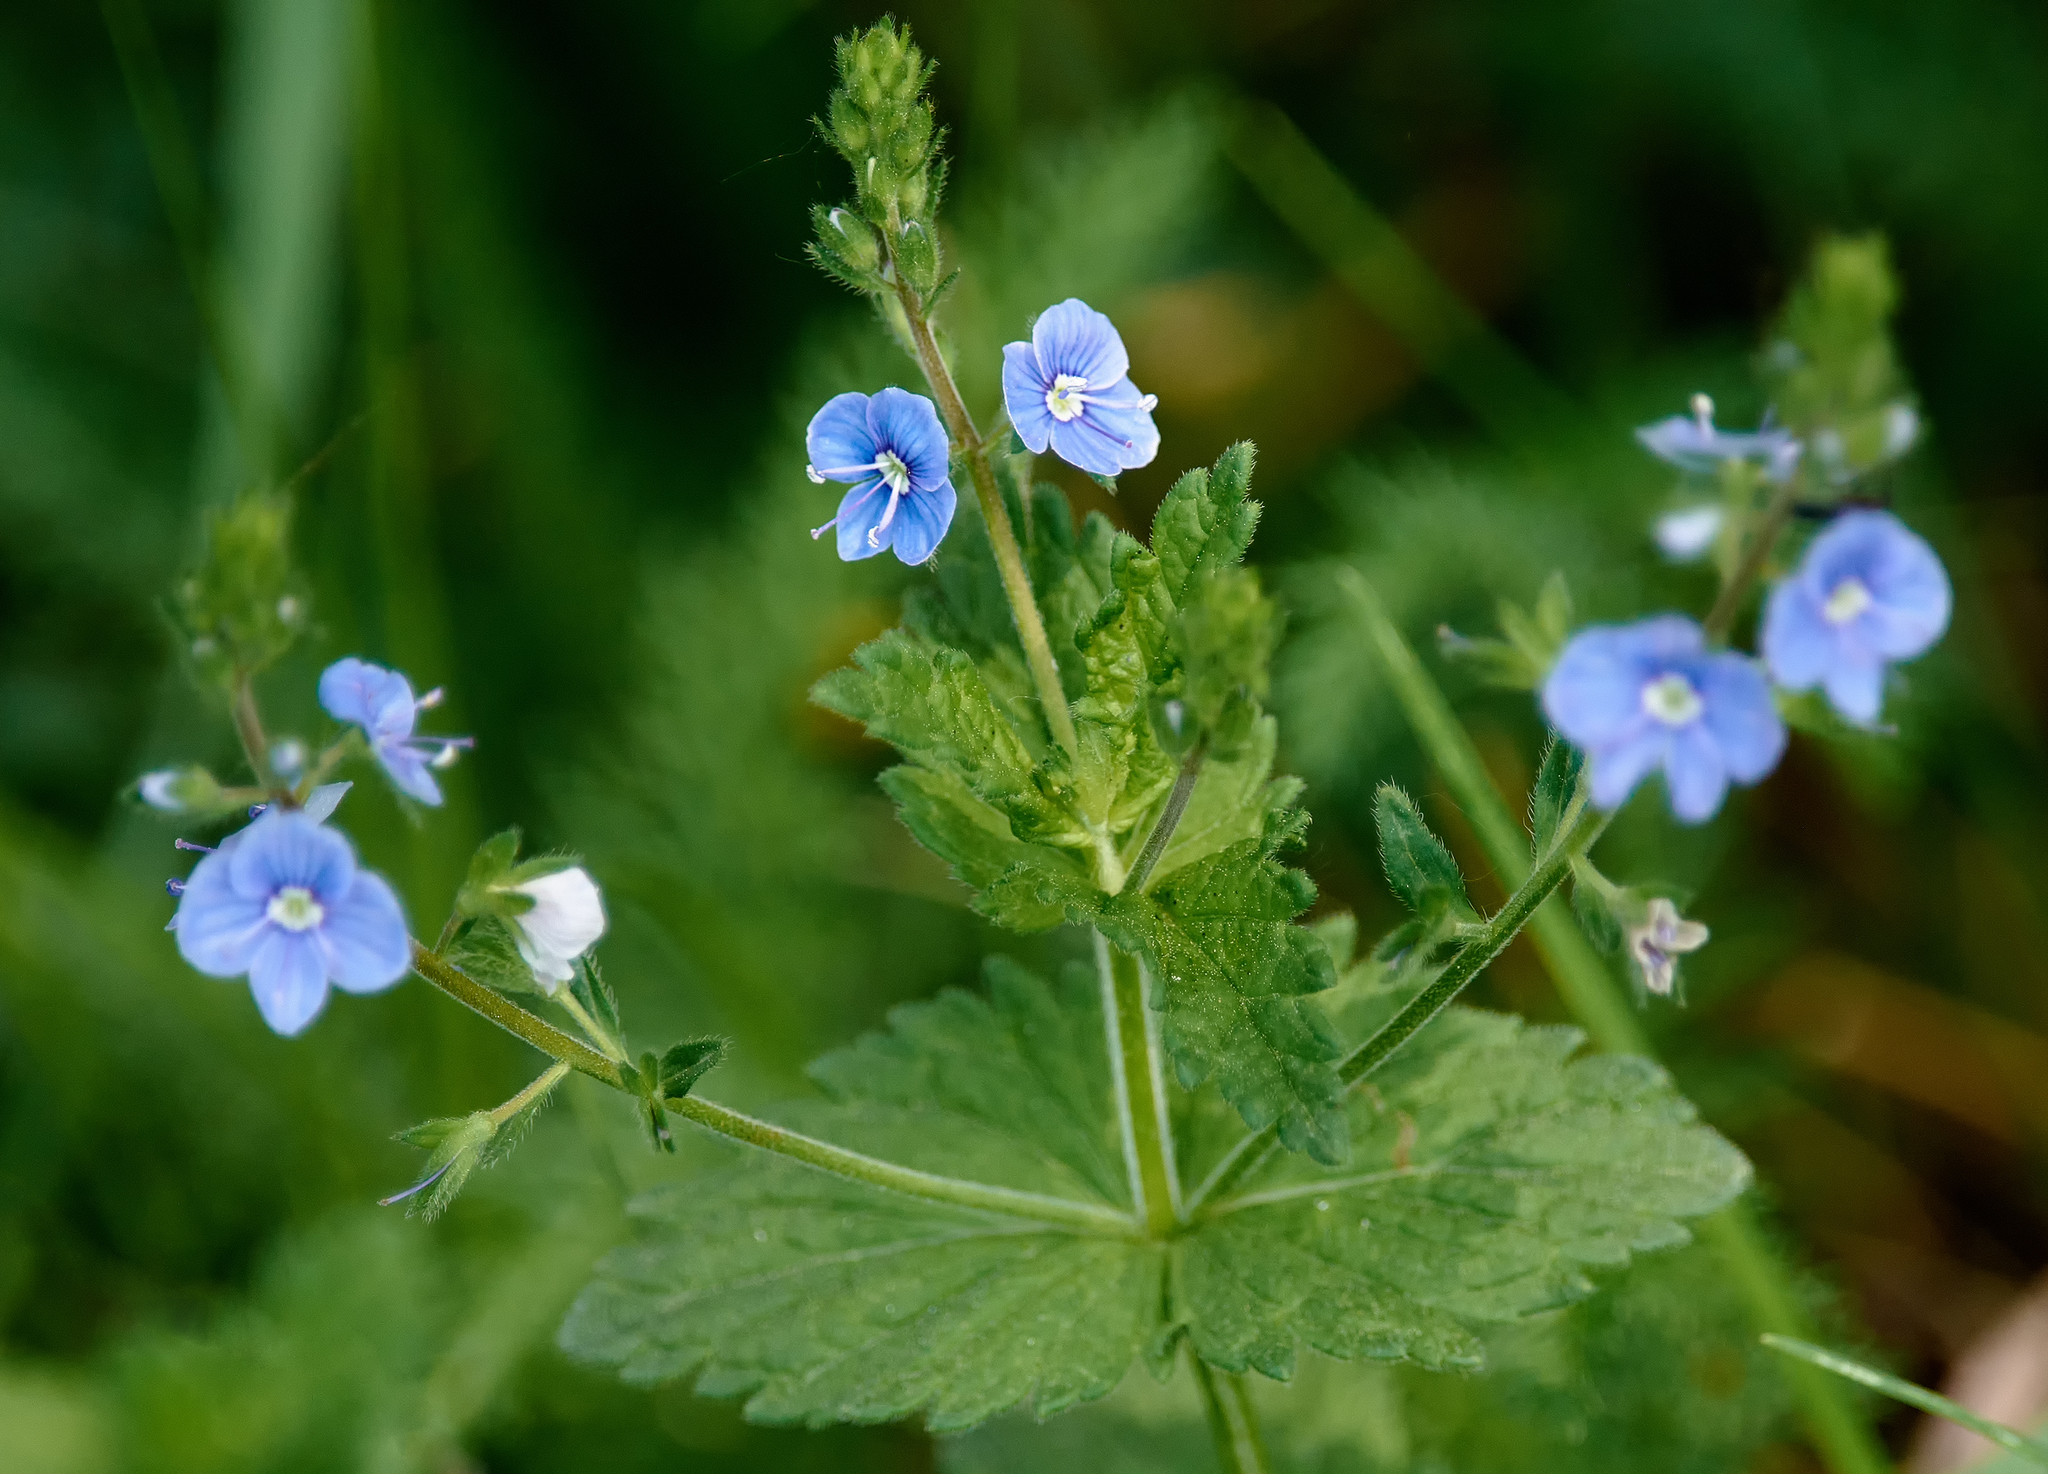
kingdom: Plantae
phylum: Tracheophyta
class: Magnoliopsida
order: Lamiales
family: Plantaginaceae
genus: Veronica
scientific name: Veronica chamaedrys
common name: Germander speedwell
